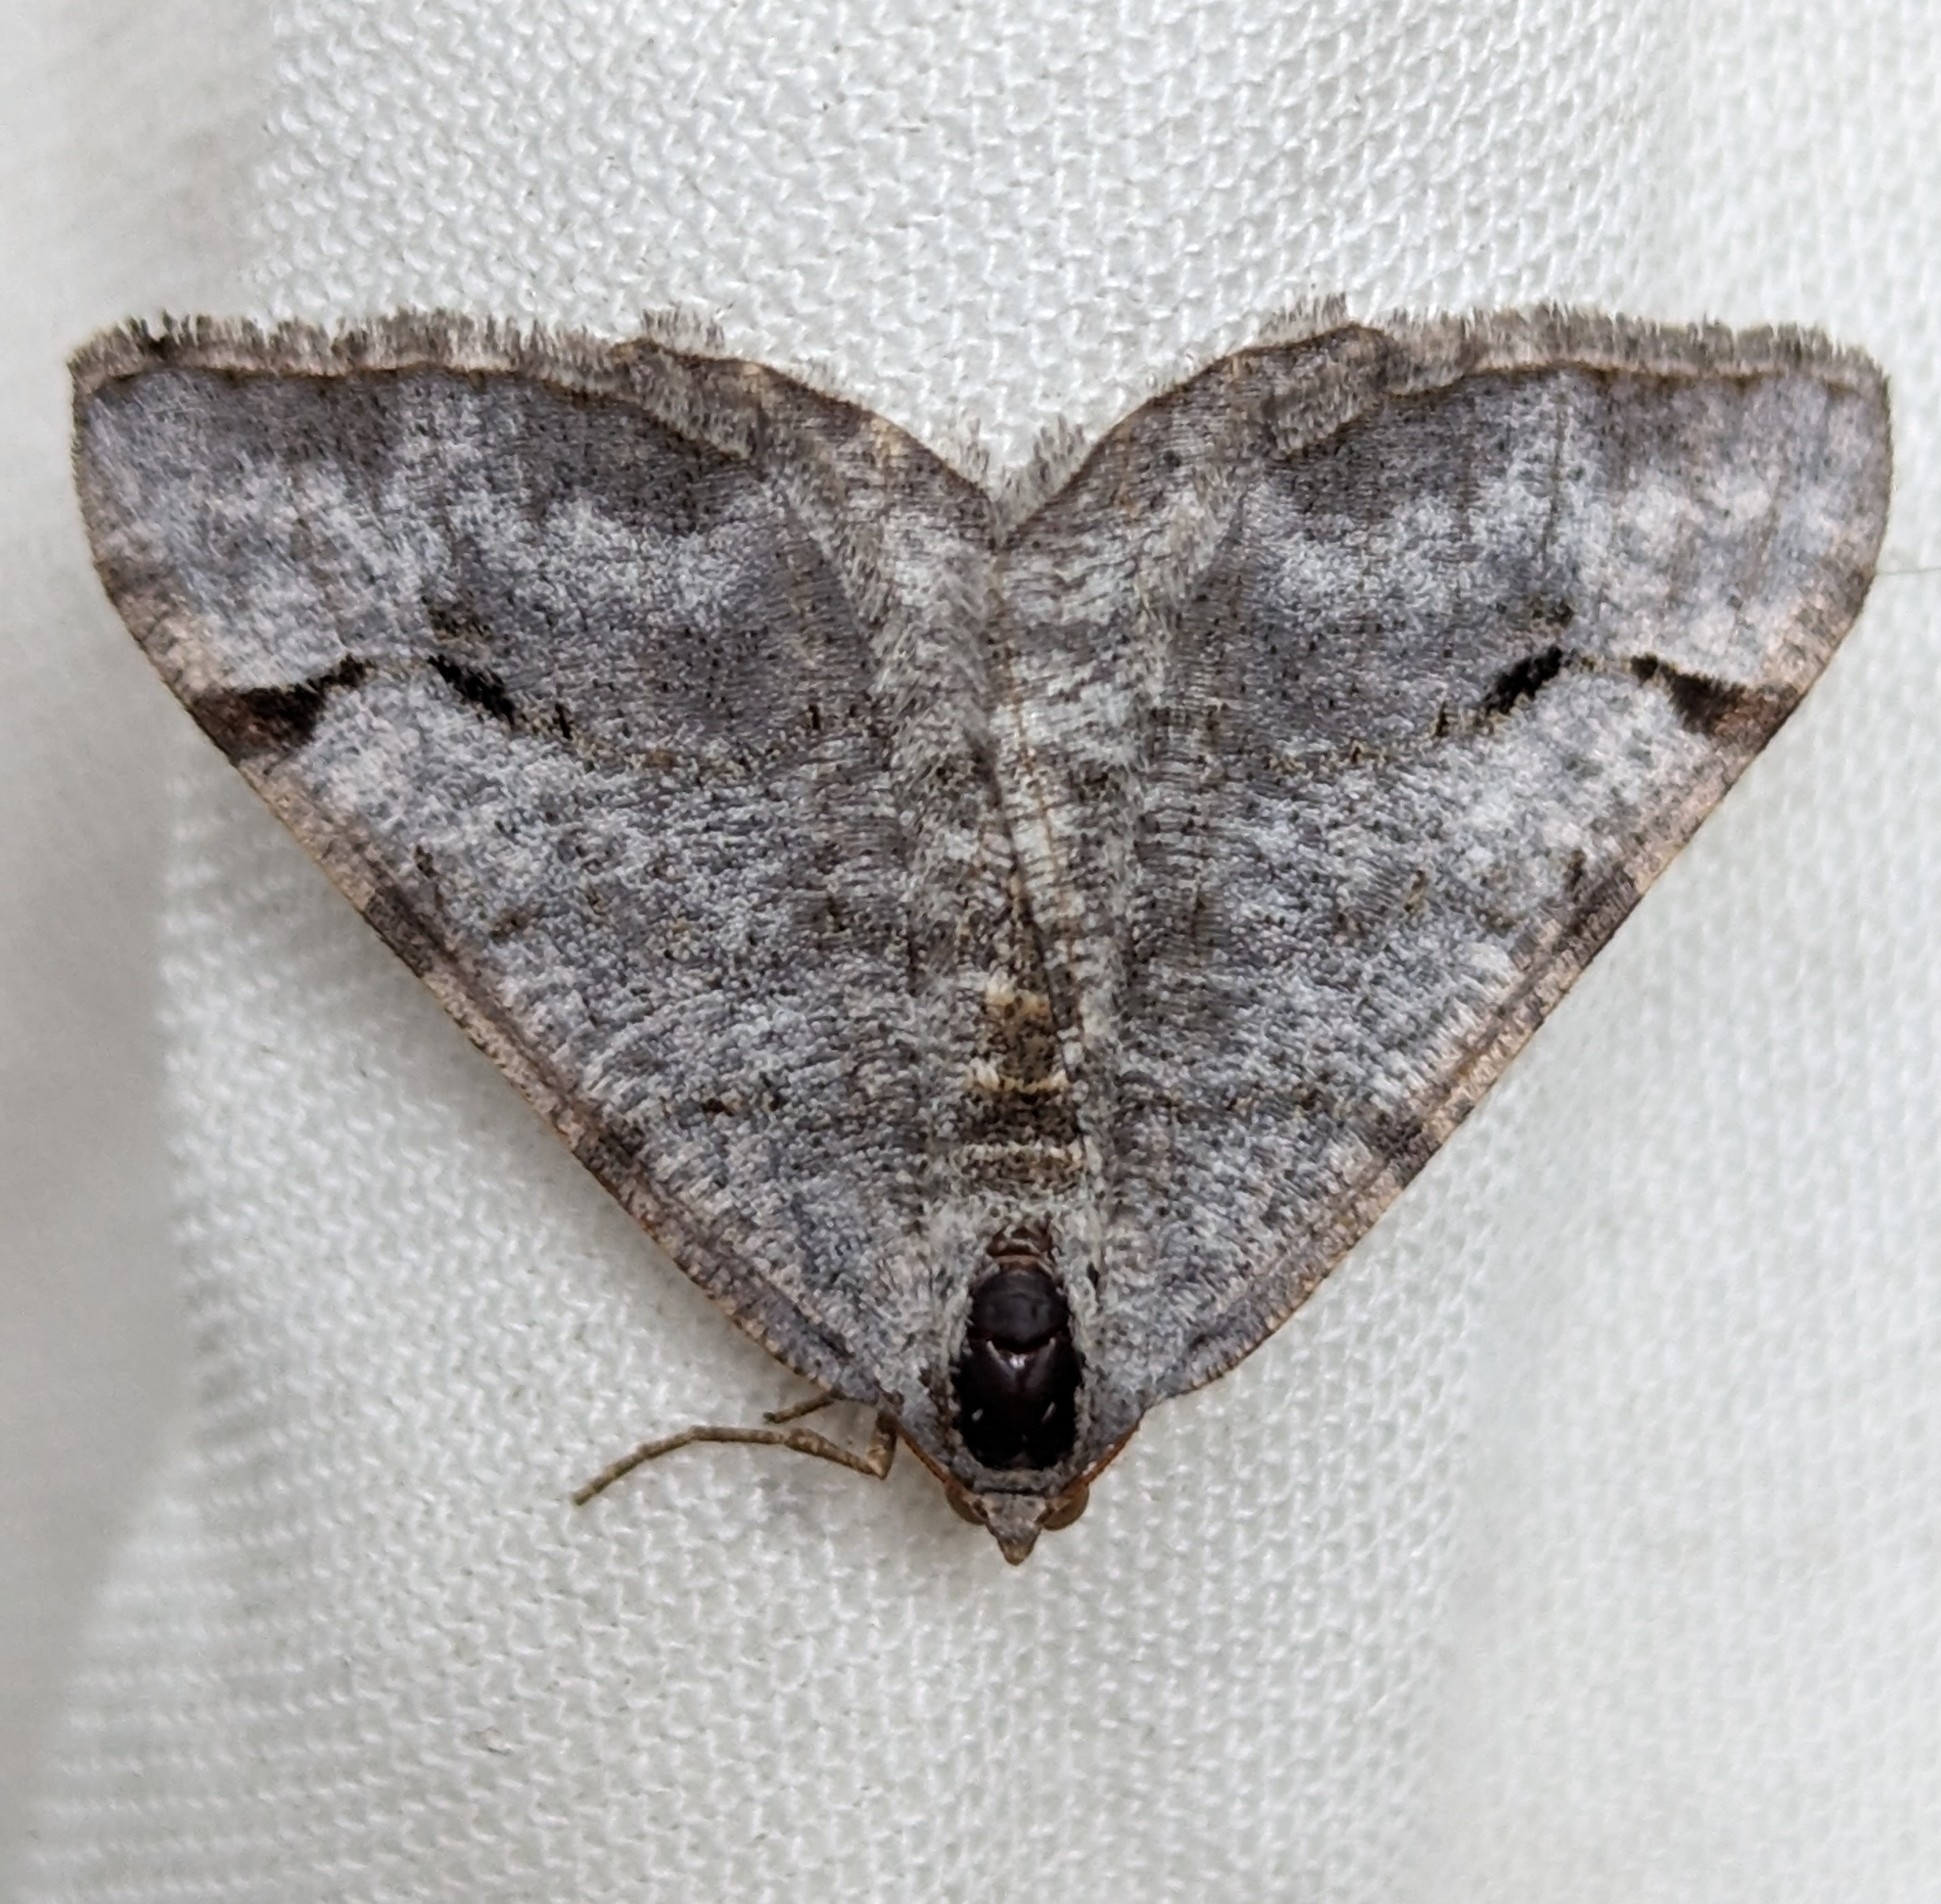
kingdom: Animalia
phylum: Arthropoda
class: Insecta
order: Lepidoptera
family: Geometridae
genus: Digrammia
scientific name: Digrammia denticulata
